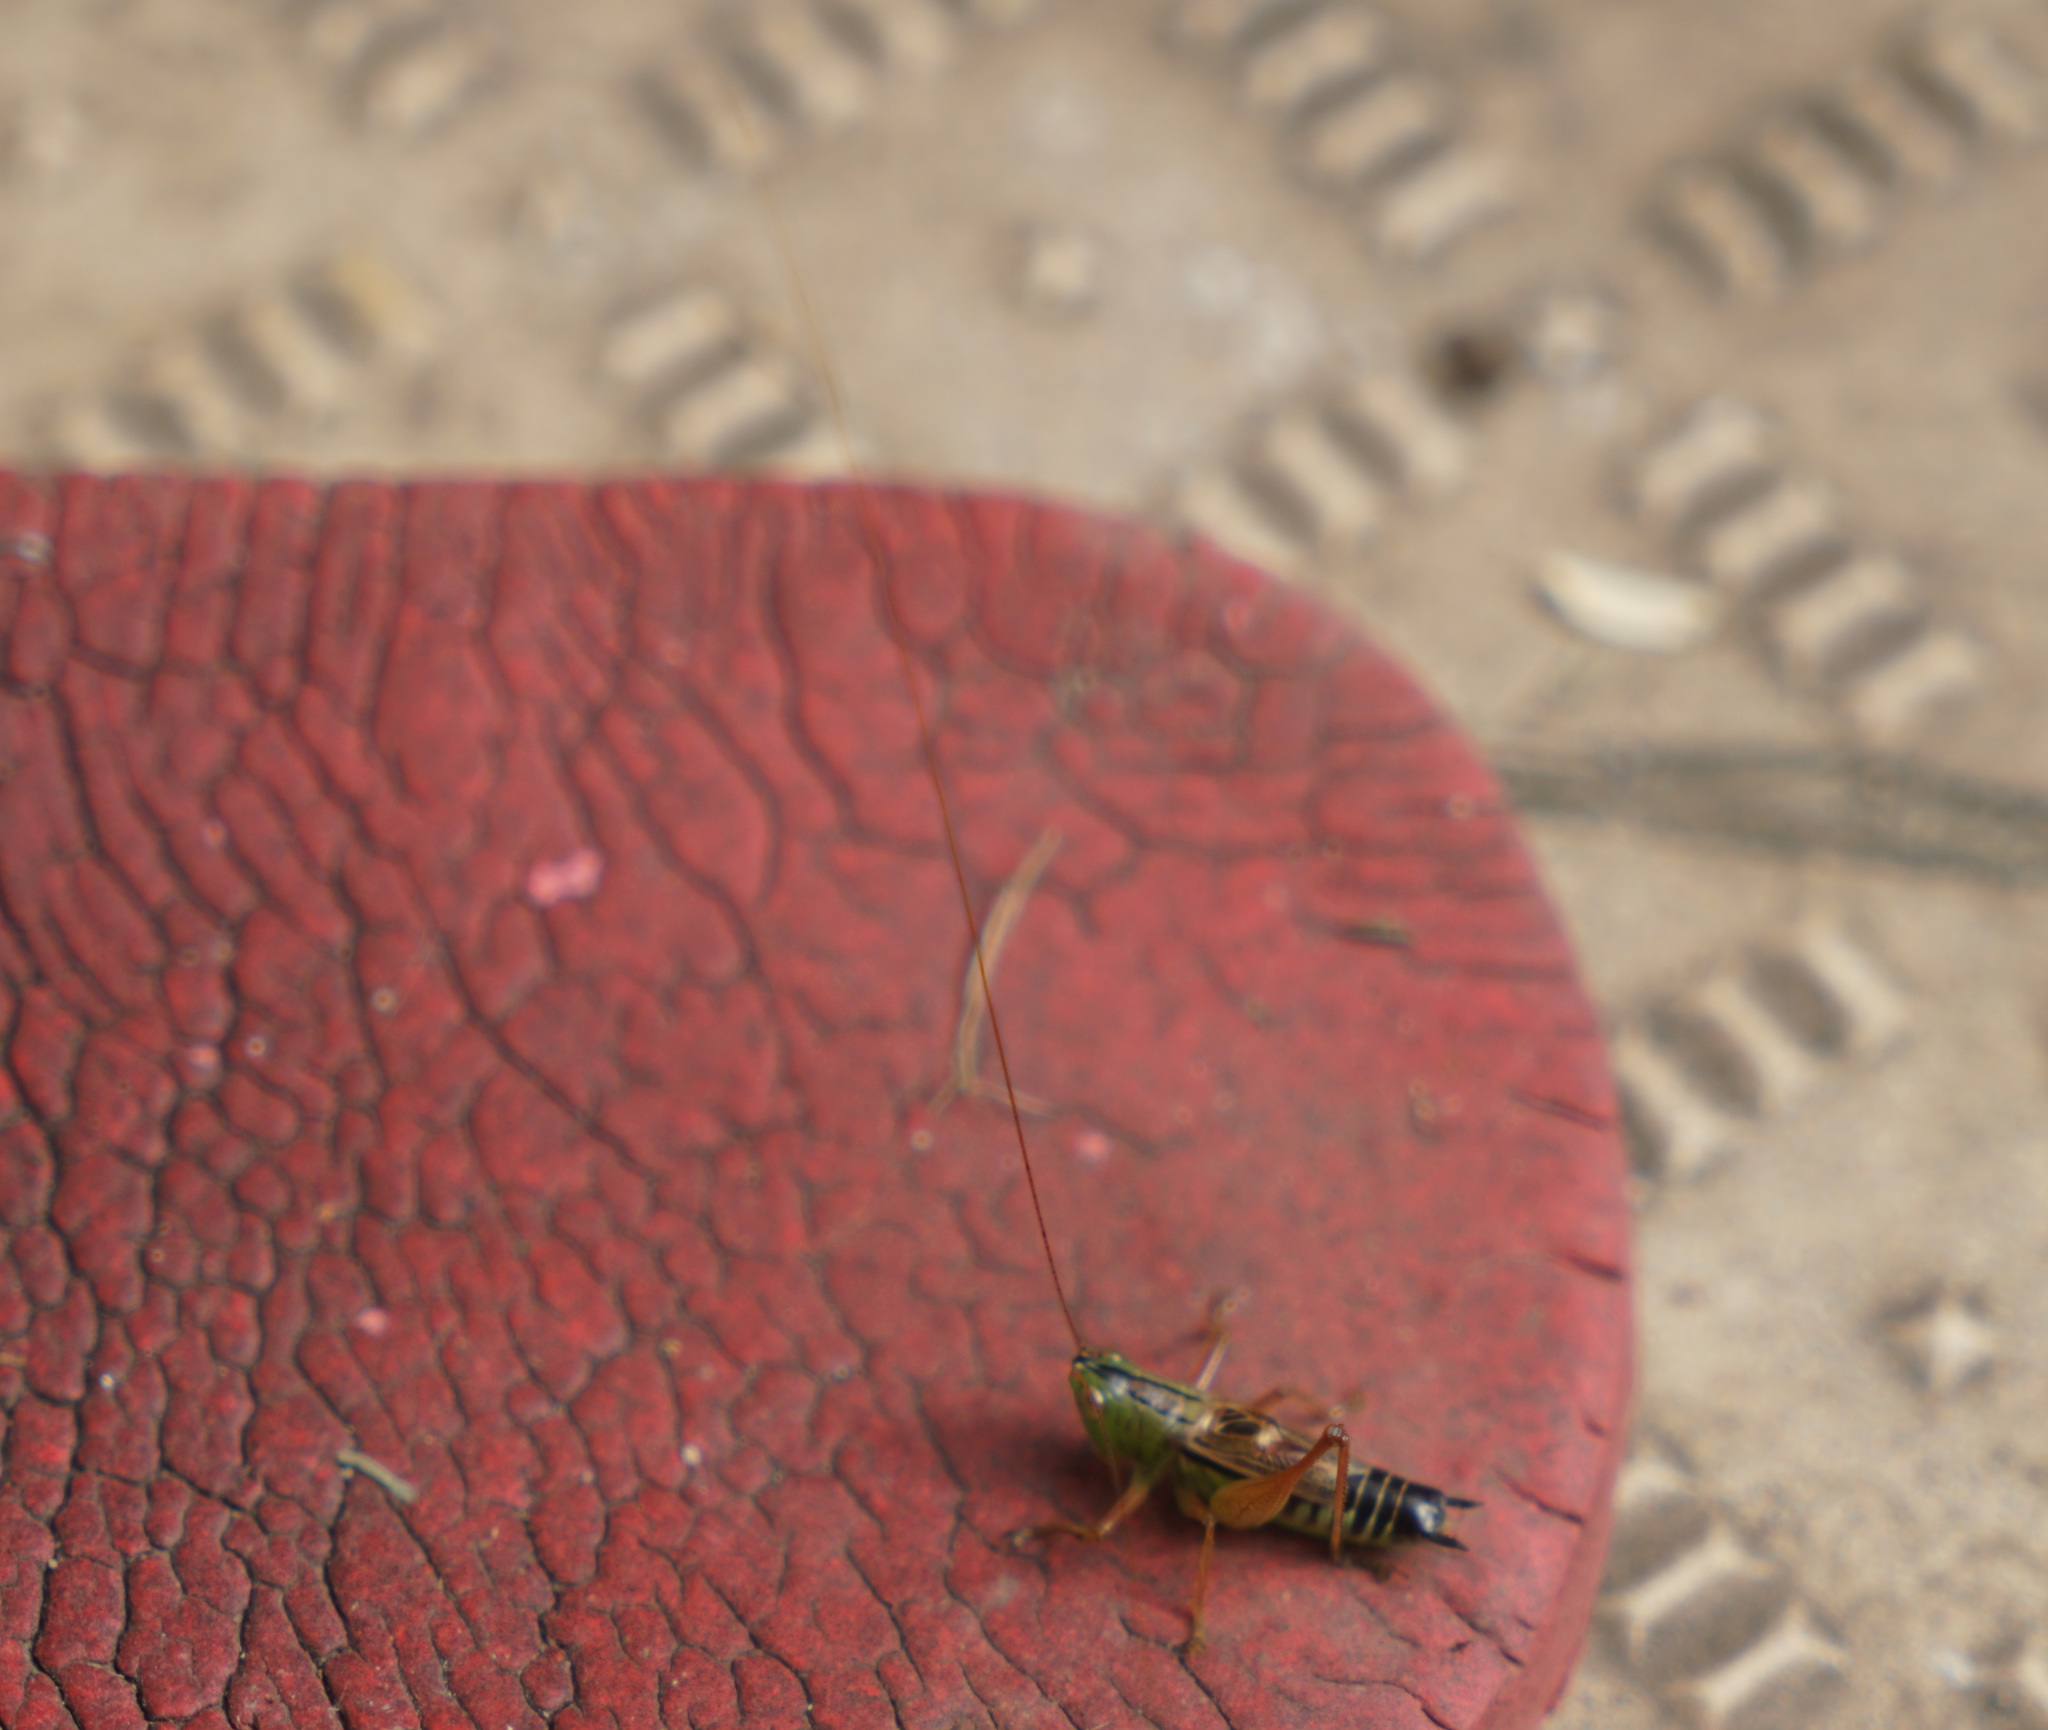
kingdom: Animalia
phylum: Arthropoda
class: Insecta
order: Orthoptera
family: Tettigoniidae
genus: Conocephalus
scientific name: Conocephalus semivittatus
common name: Blackish meadow katydid
